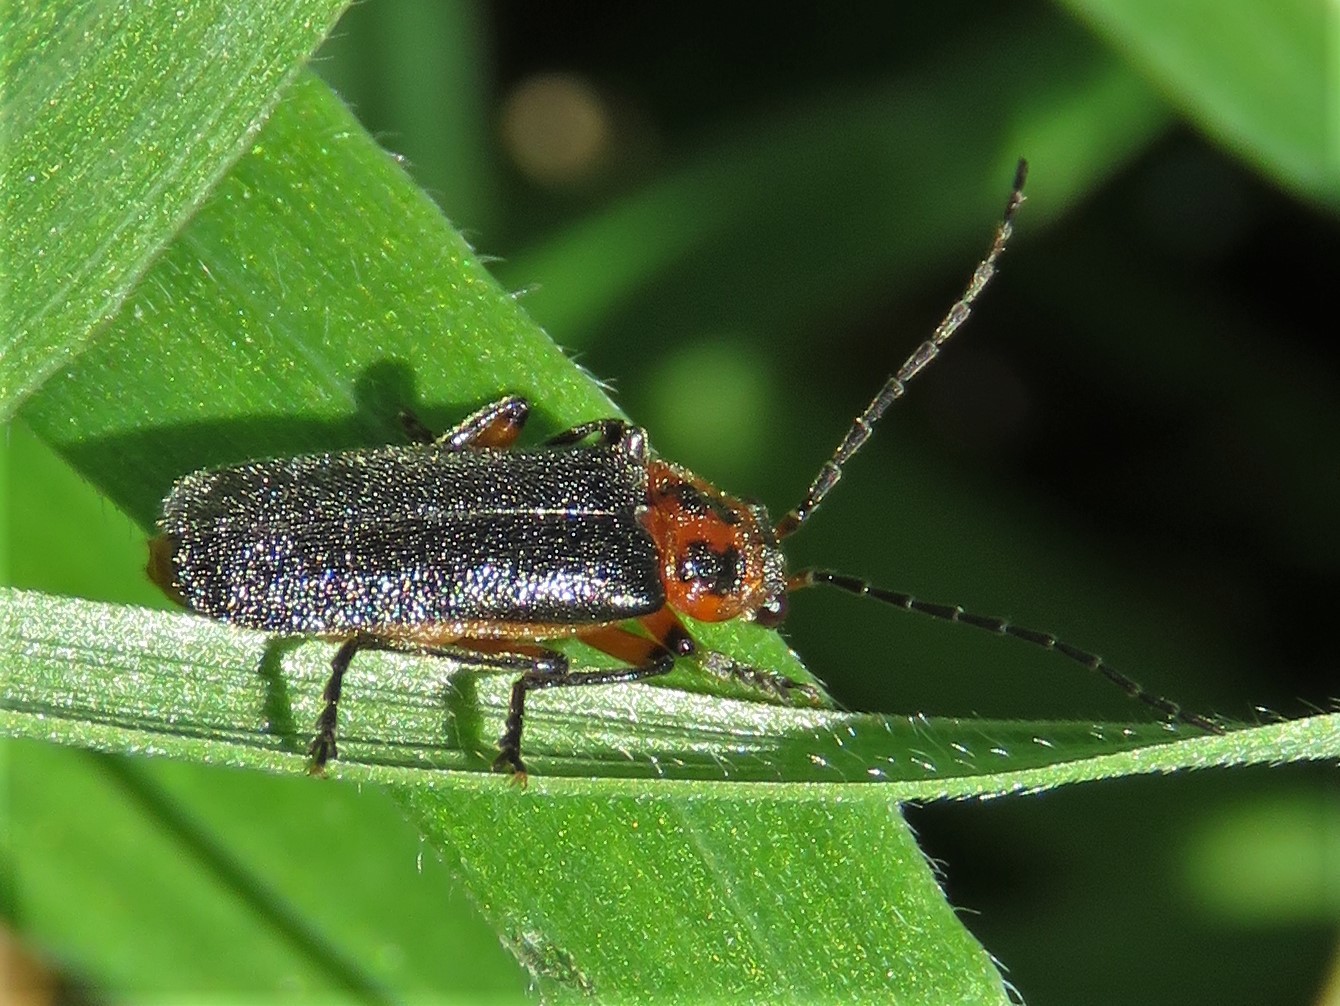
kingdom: Animalia
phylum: Arthropoda
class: Insecta
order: Coleoptera
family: Cantharidae
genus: Atalantycha
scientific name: Atalantycha bilineata
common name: Two-lined leatherwing
